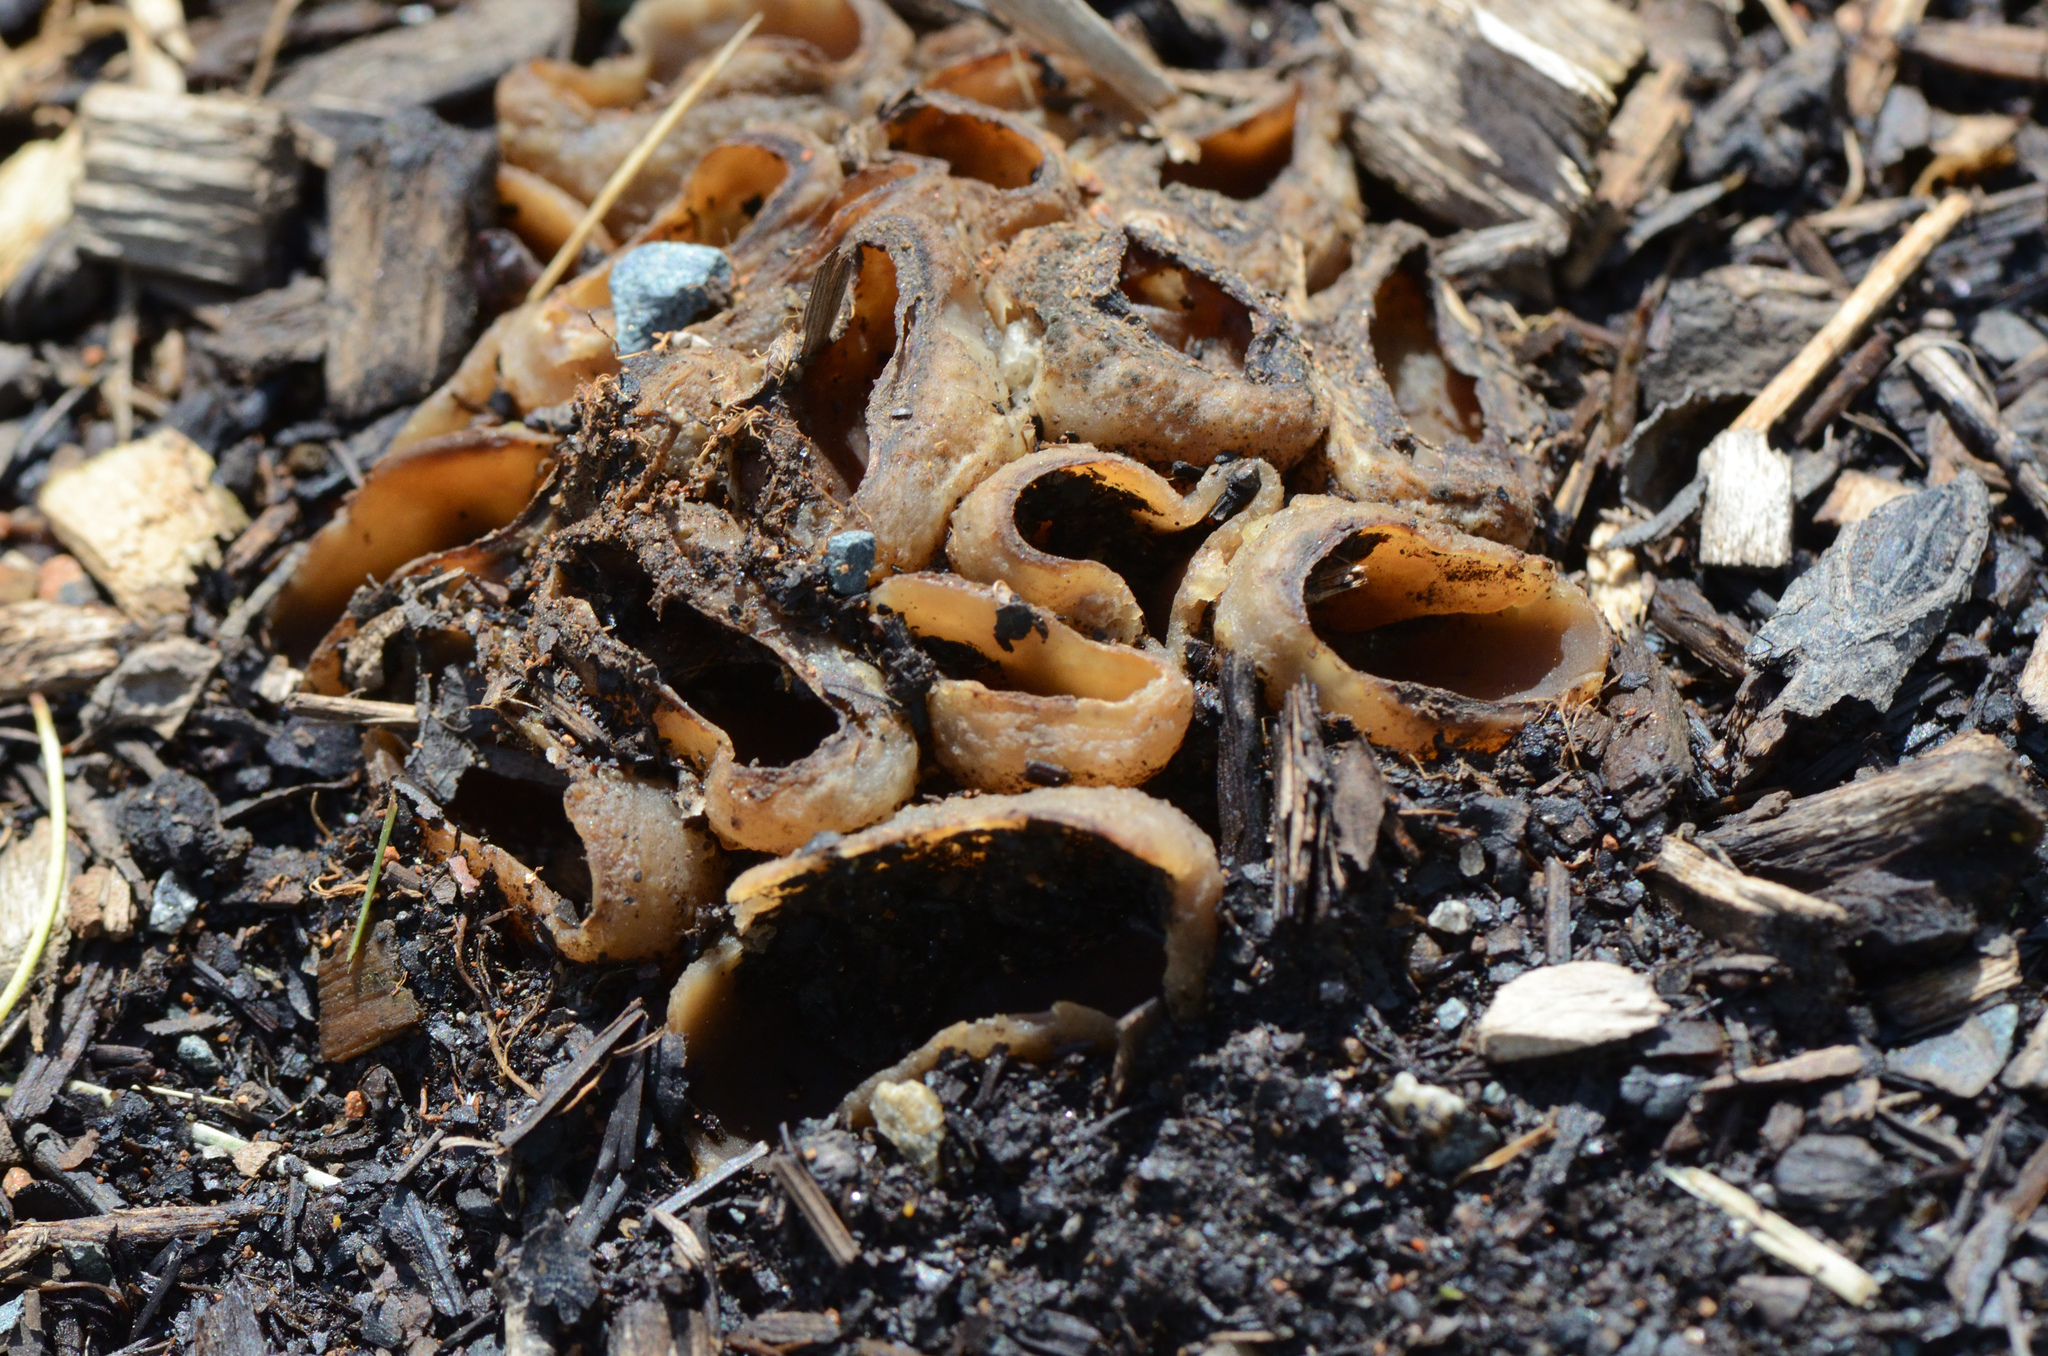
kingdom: Fungi
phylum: Ascomycota
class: Pezizomycetes
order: Pezizales
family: Pezizaceae
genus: Peziza
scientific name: Peziza vesiculosa
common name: Blistered cup
